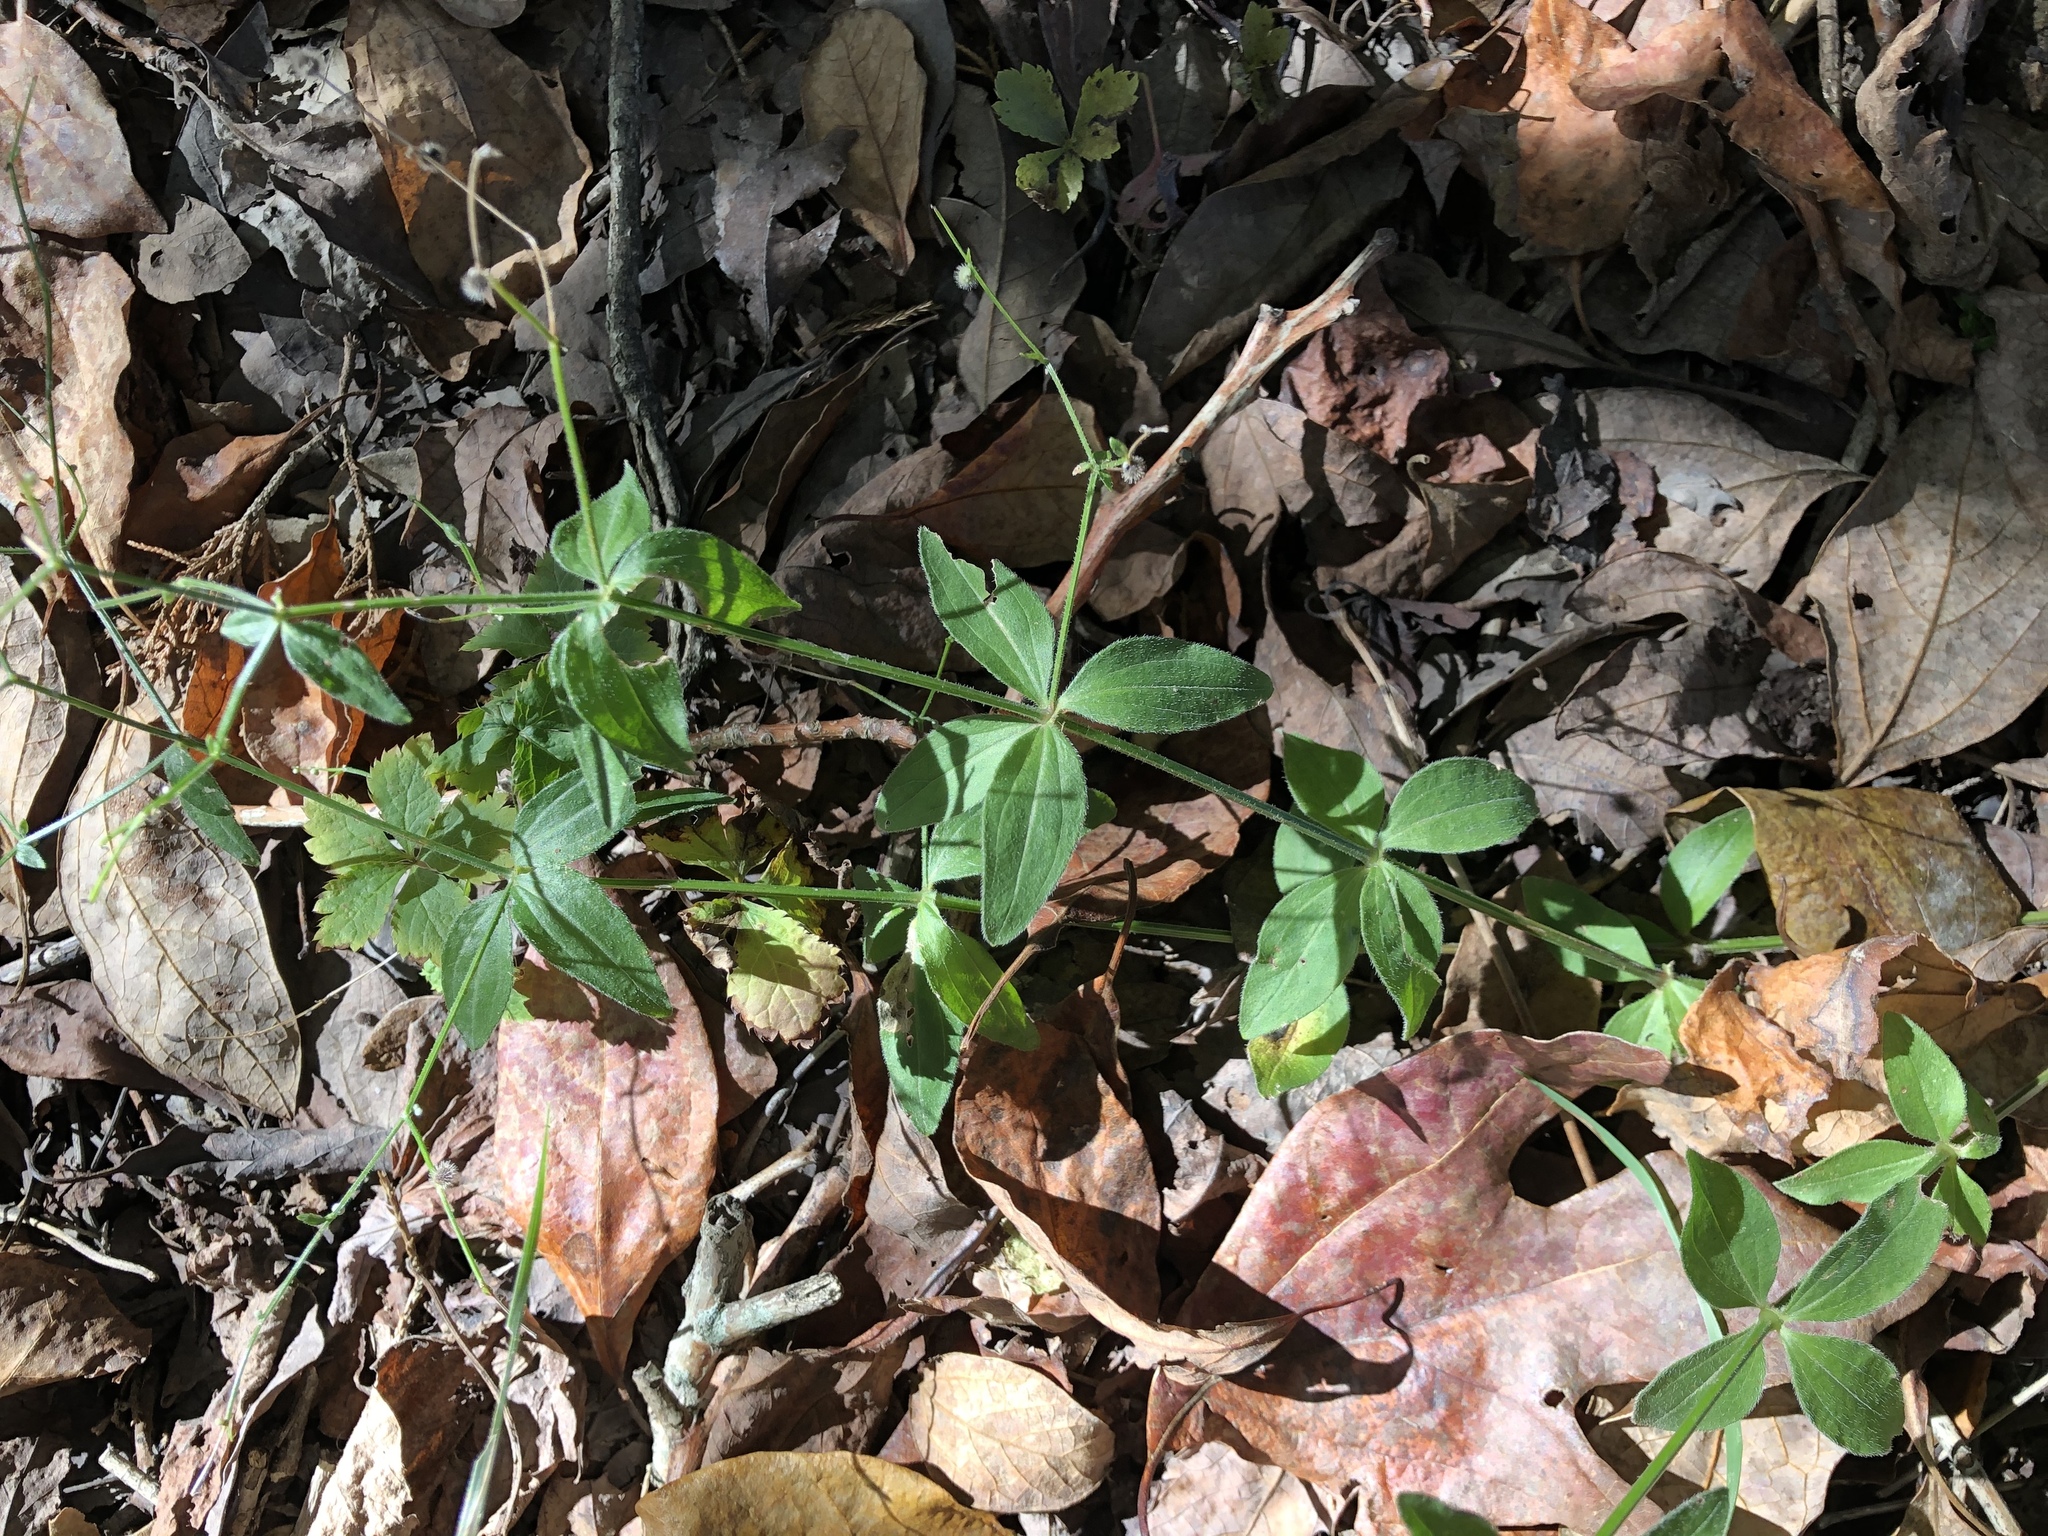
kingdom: Plantae
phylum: Tracheophyta
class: Magnoliopsida
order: Gentianales
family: Rubiaceae
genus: Galium
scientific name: Galium circaezans
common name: Forest bedstraw
